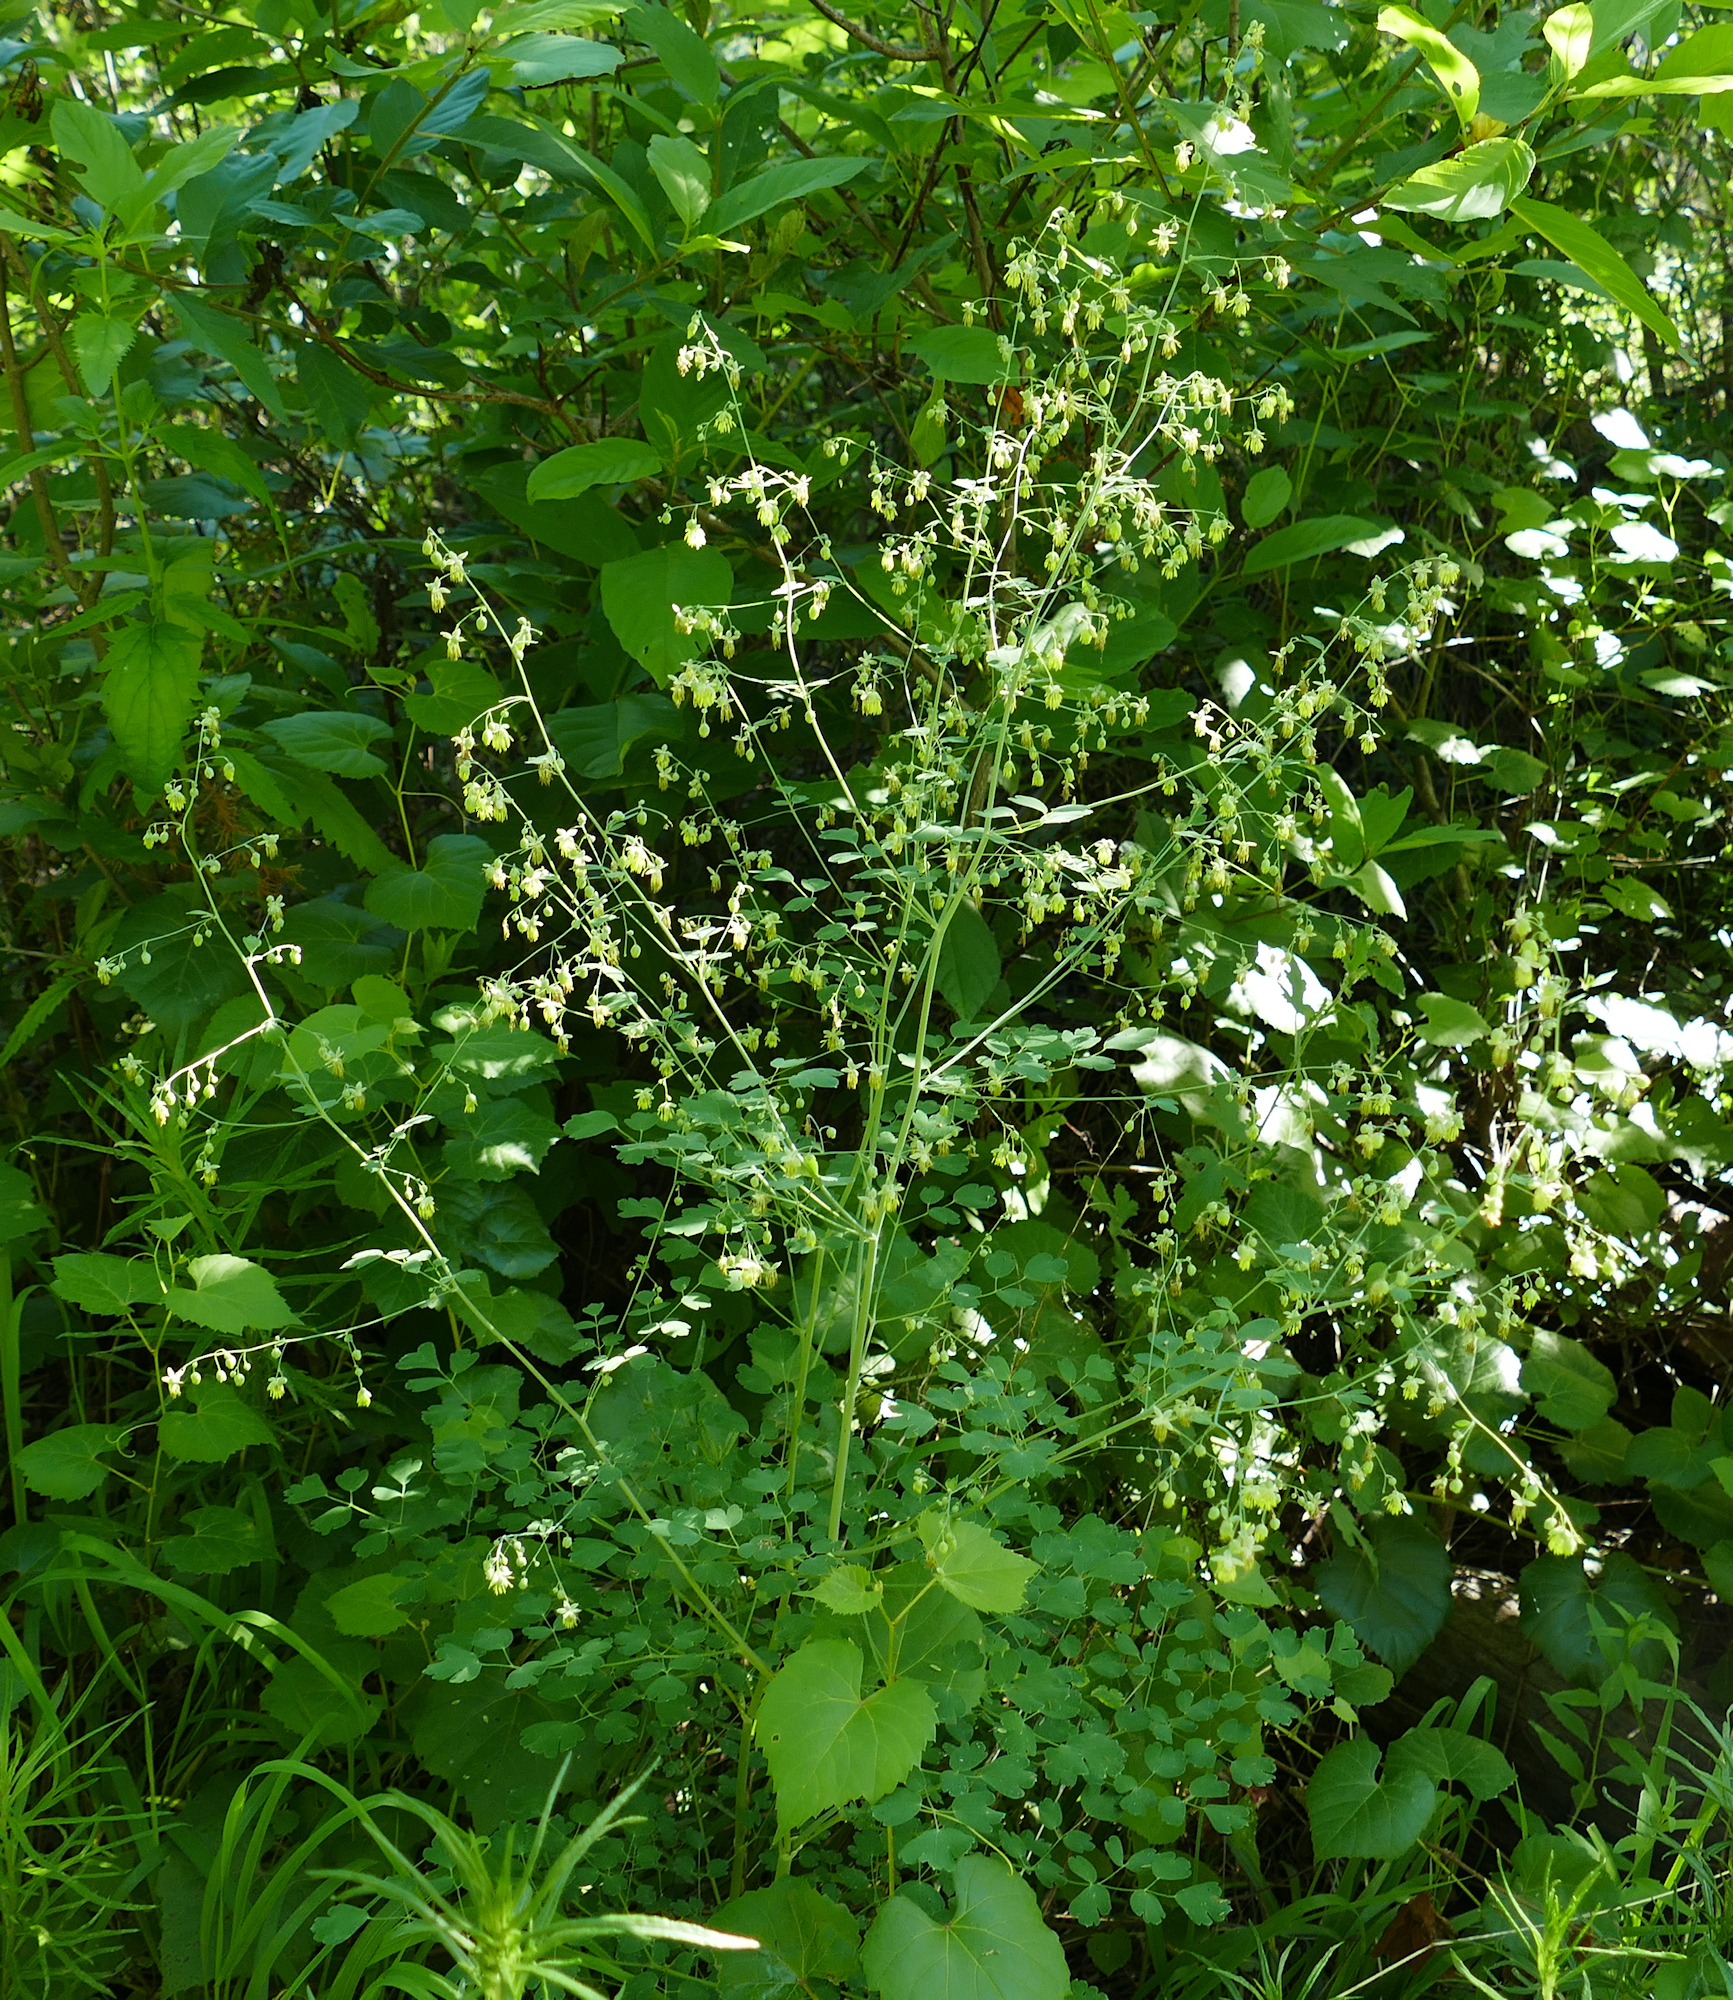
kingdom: Plantae
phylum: Tracheophyta
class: Magnoliopsida
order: Ranunculales
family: Ranunculaceae
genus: Thalictrum
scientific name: Thalictrum fendleri
